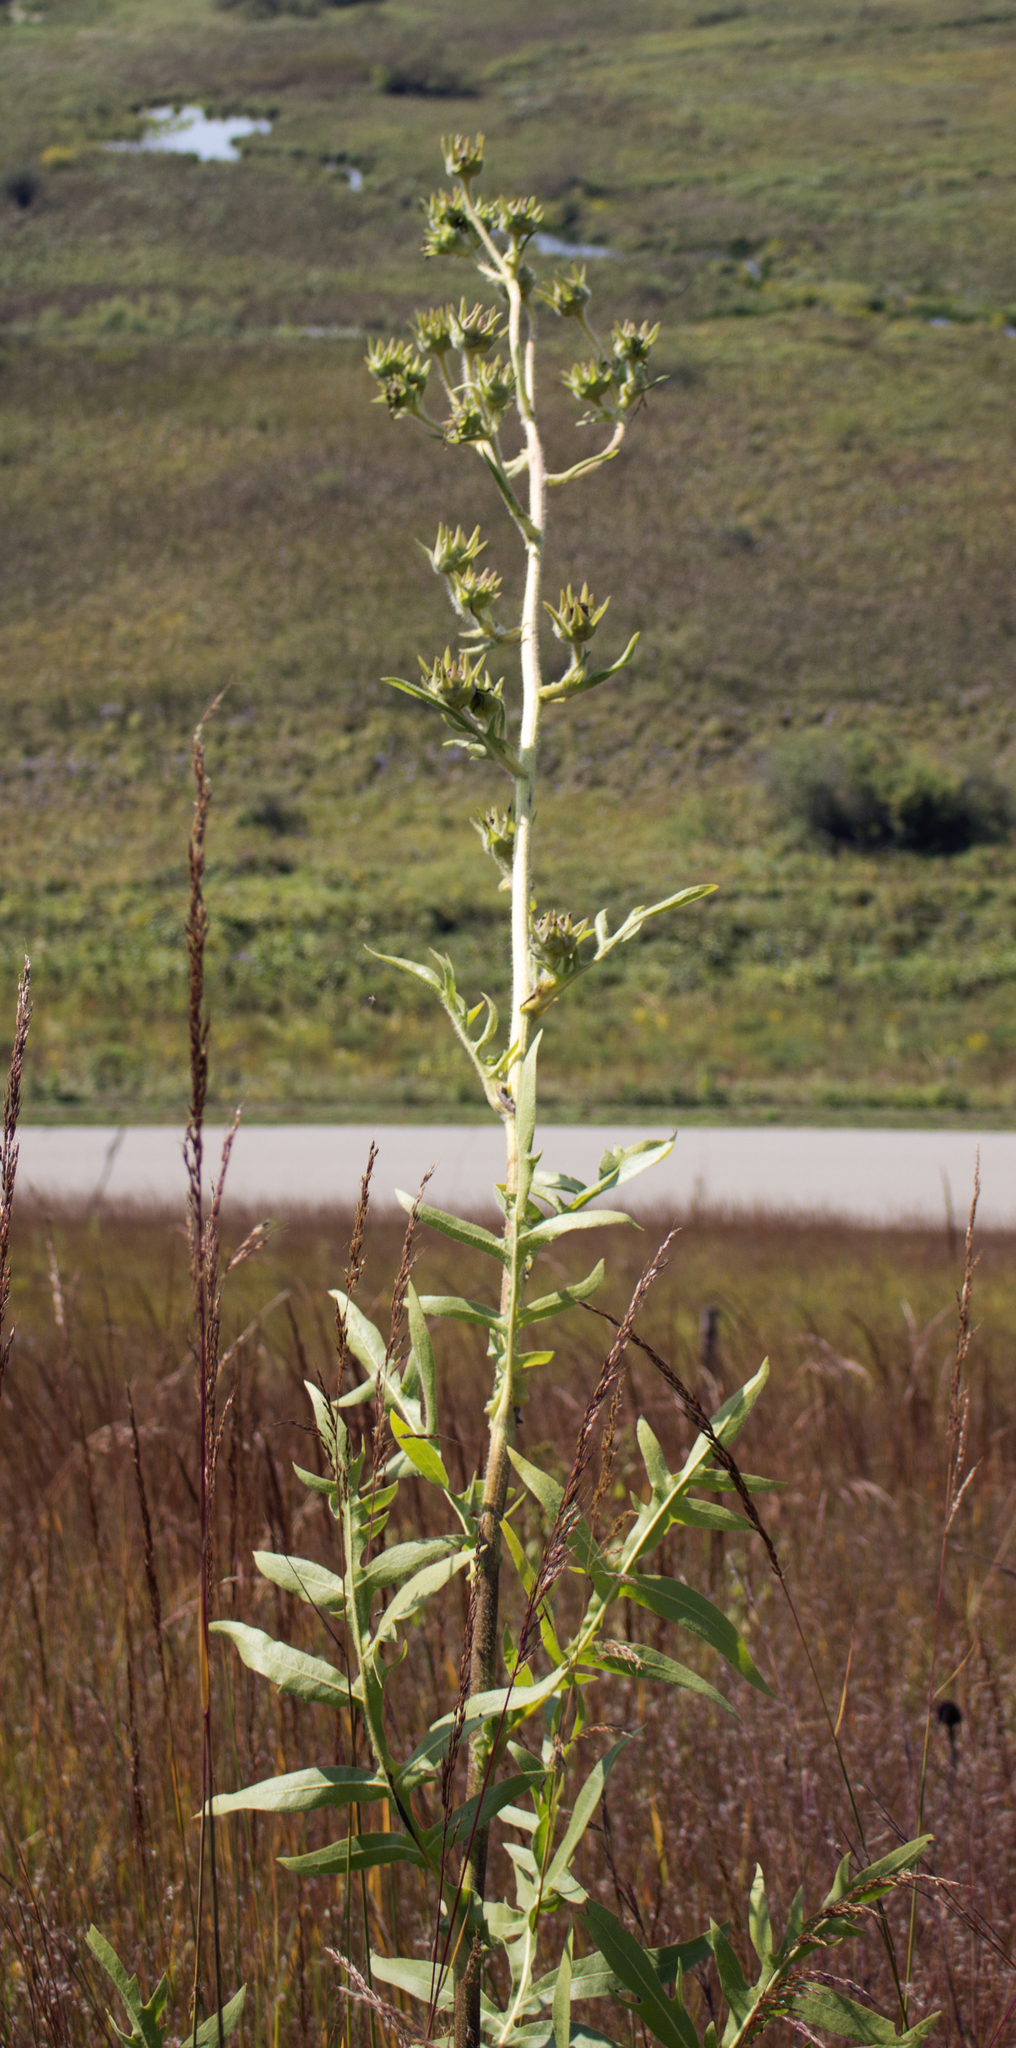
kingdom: Plantae
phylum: Tracheophyta
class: Magnoliopsida
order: Asterales
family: Asteraceae
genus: Silphium
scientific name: Silphium laciniatum
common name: Polarplant
